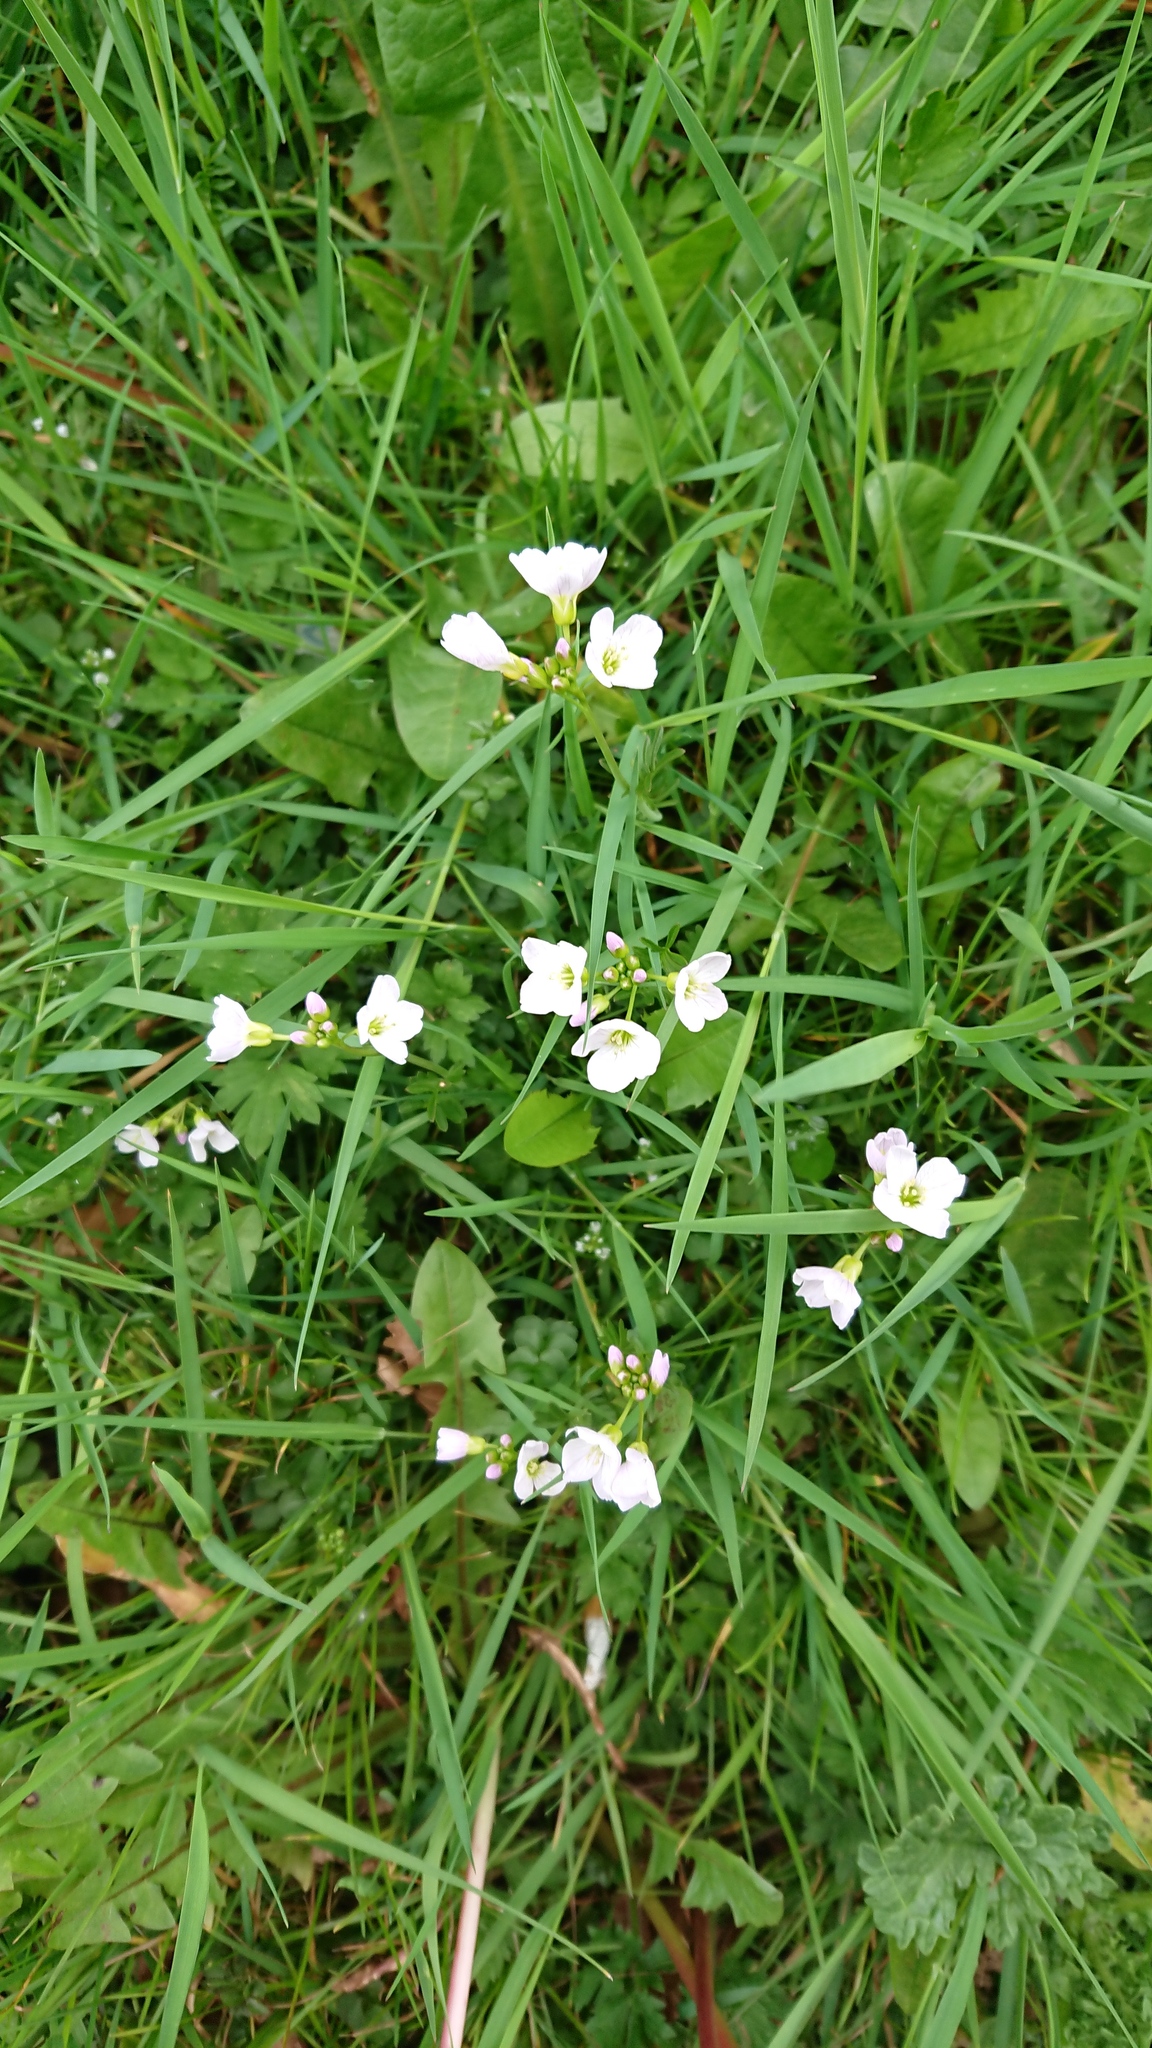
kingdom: Plantae
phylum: Tracheophyta
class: Magnoliopsida
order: Brassicales
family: Brassicaceae
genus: Cardamine
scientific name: Cardamine pratensis
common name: Cuckoo flower
